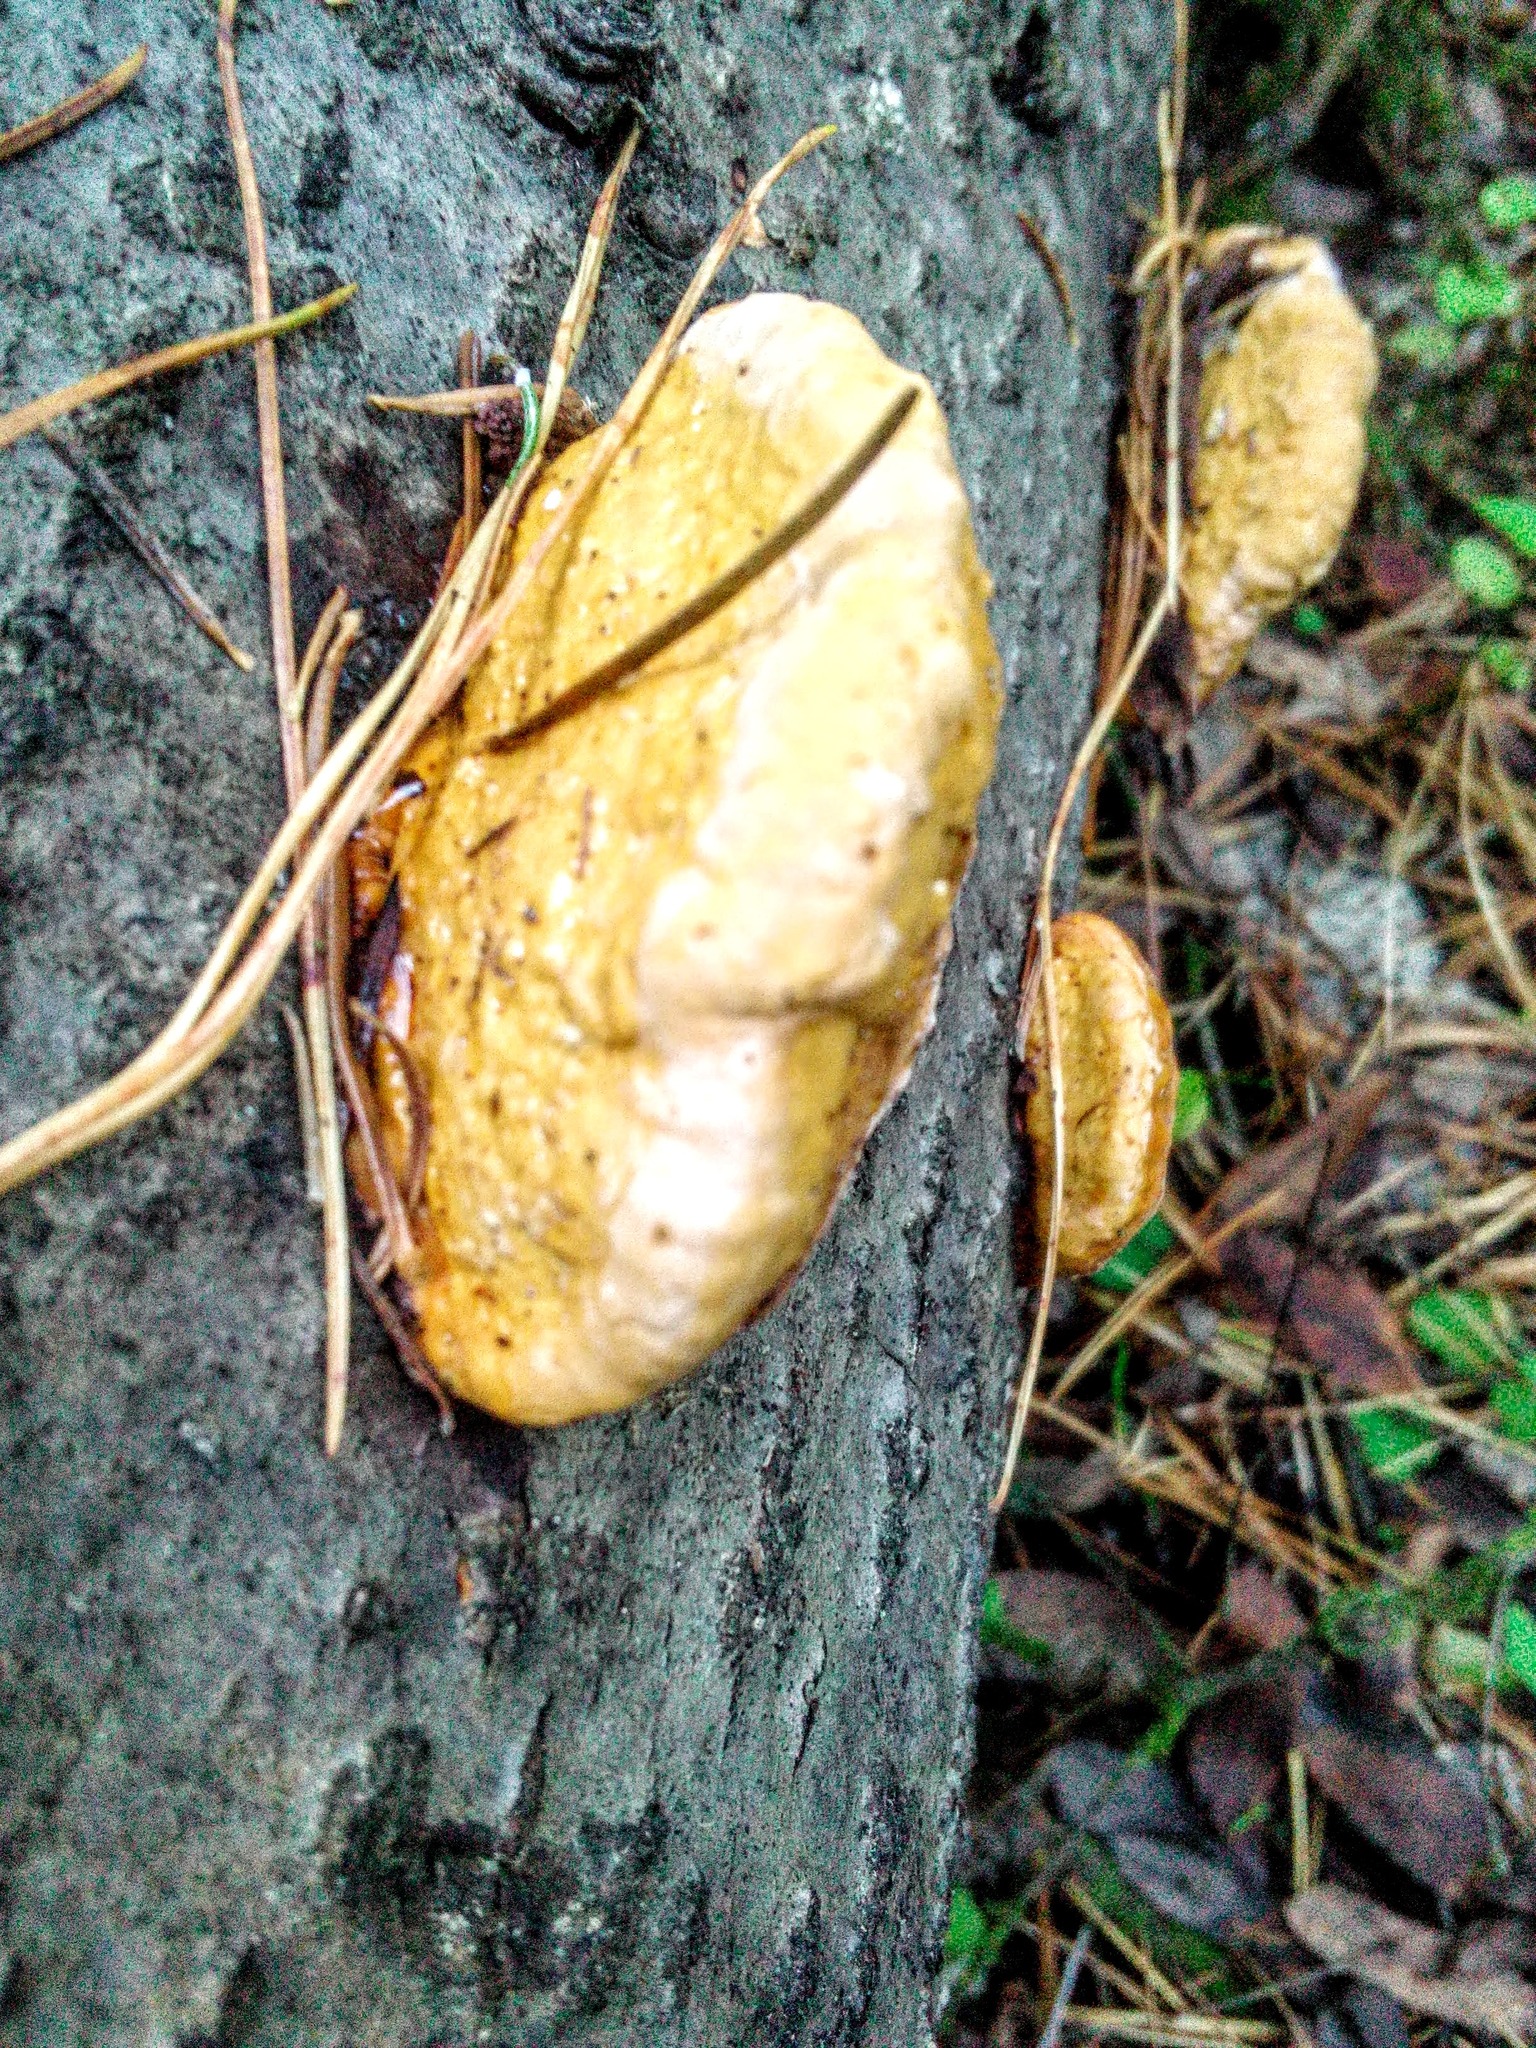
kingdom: Fungi
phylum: Basidiomycota
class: Agaricomycetes
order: Polyporales
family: Fomitopsidaceae
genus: Fomitopsis
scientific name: Fomitopsis pinicola
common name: Red-belted bracket
